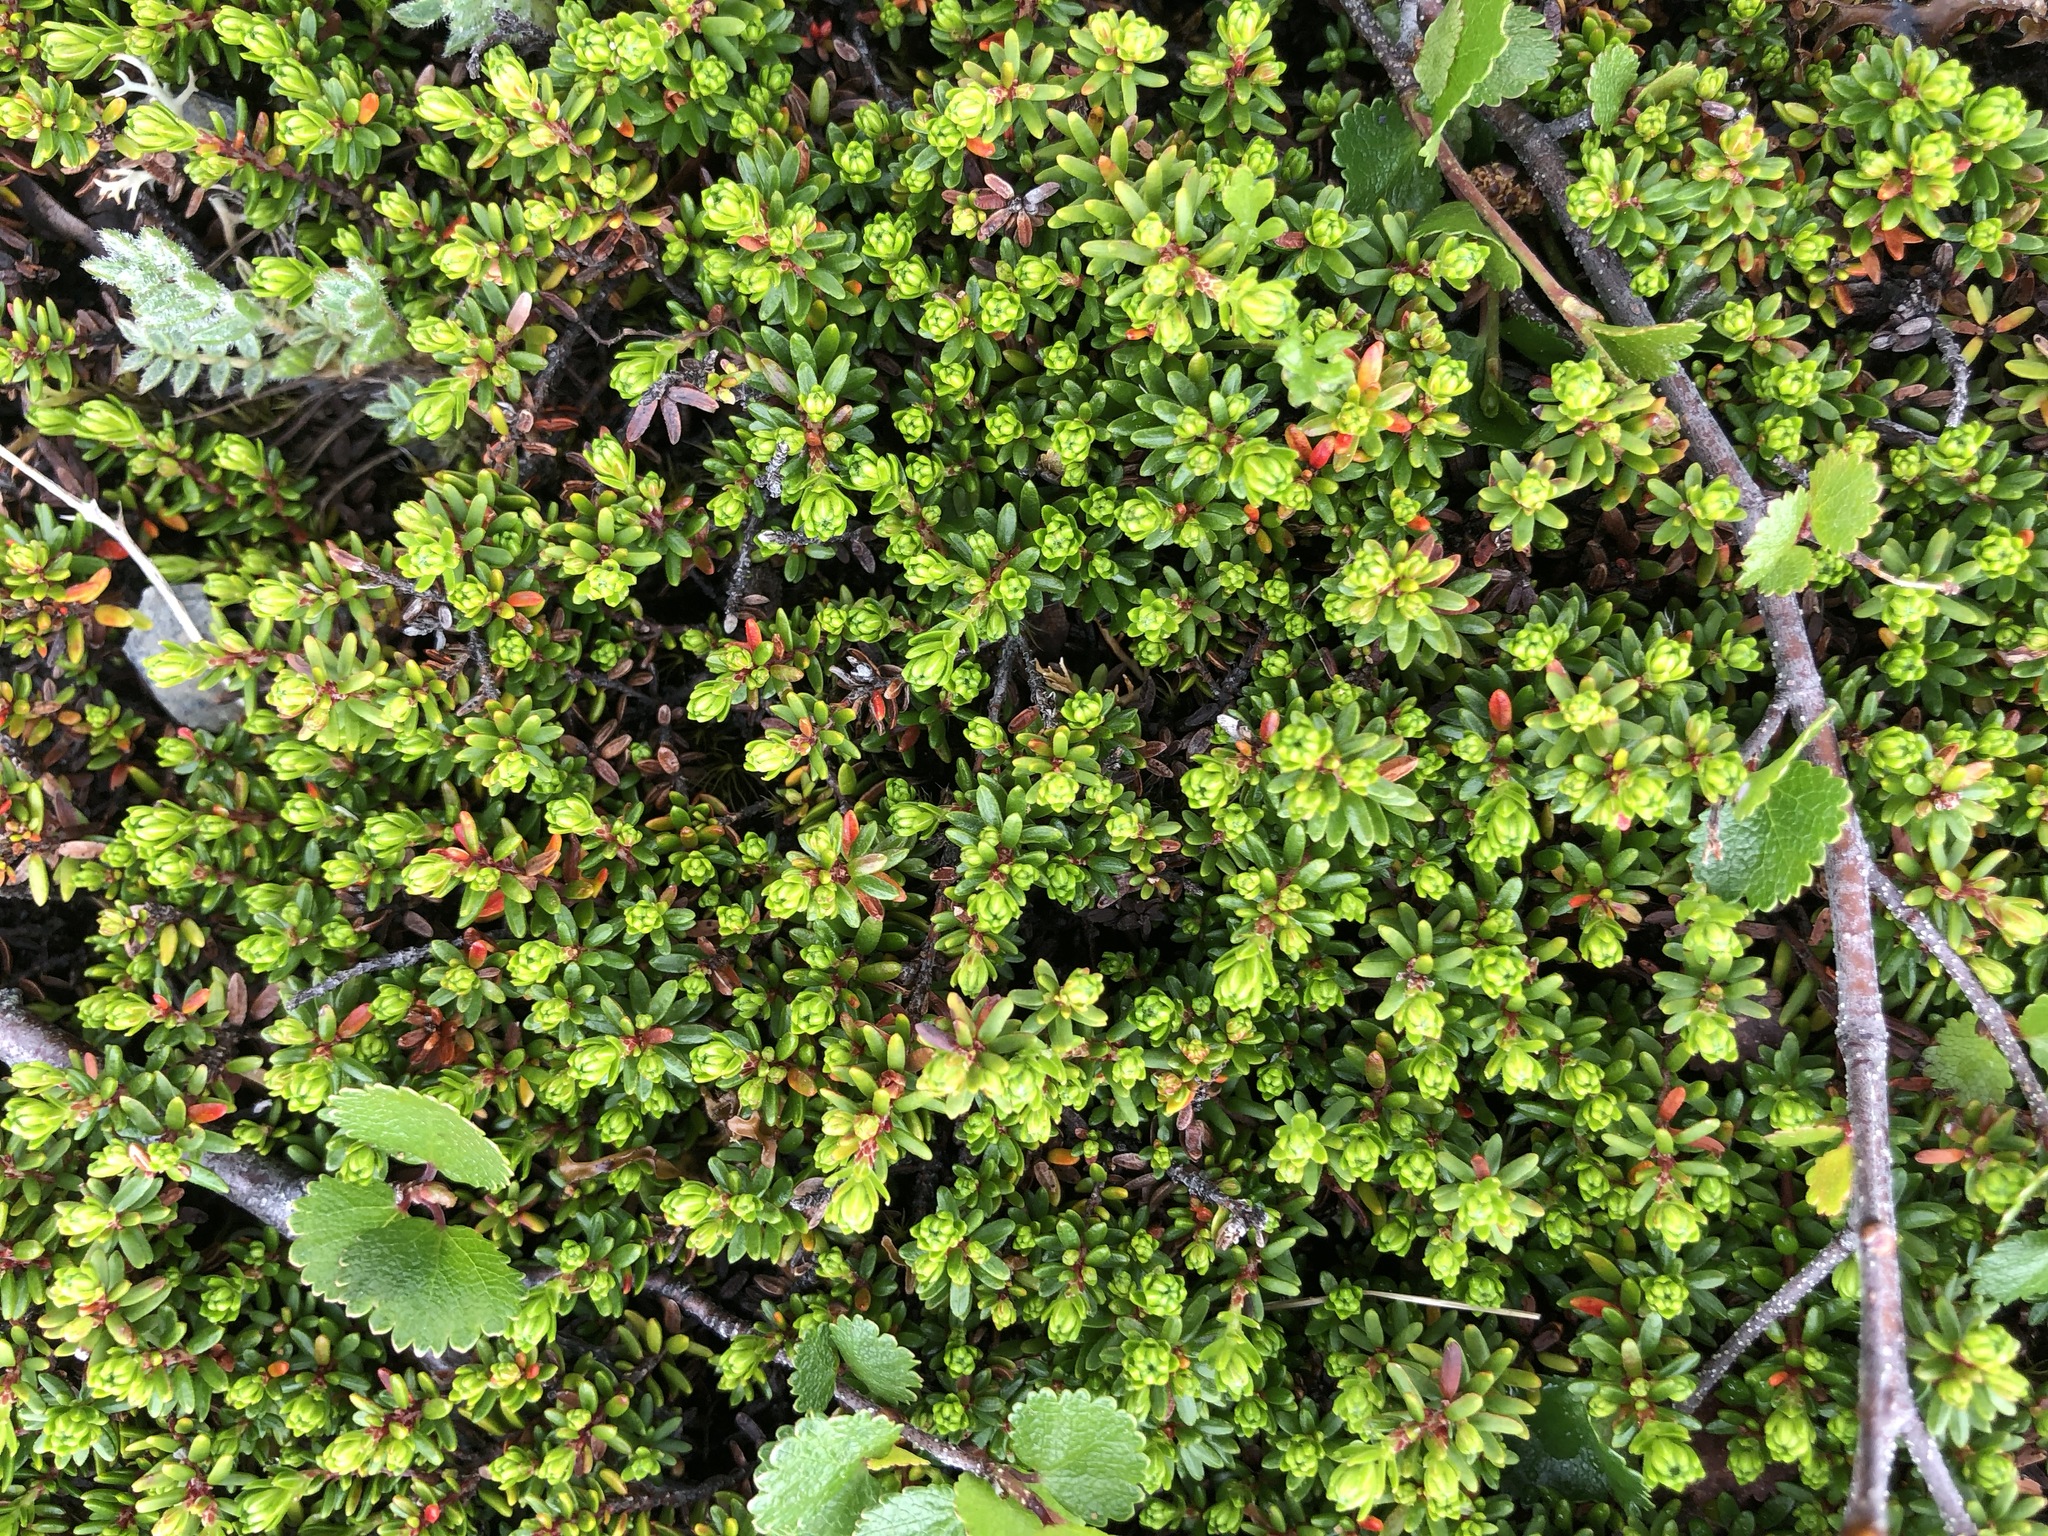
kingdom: Plantae
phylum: Tracheophyta
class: Magnoliopsida
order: Ericales
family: Ericaceae
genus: Empetrum
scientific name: Empetrum nigrum
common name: Black crowberry
